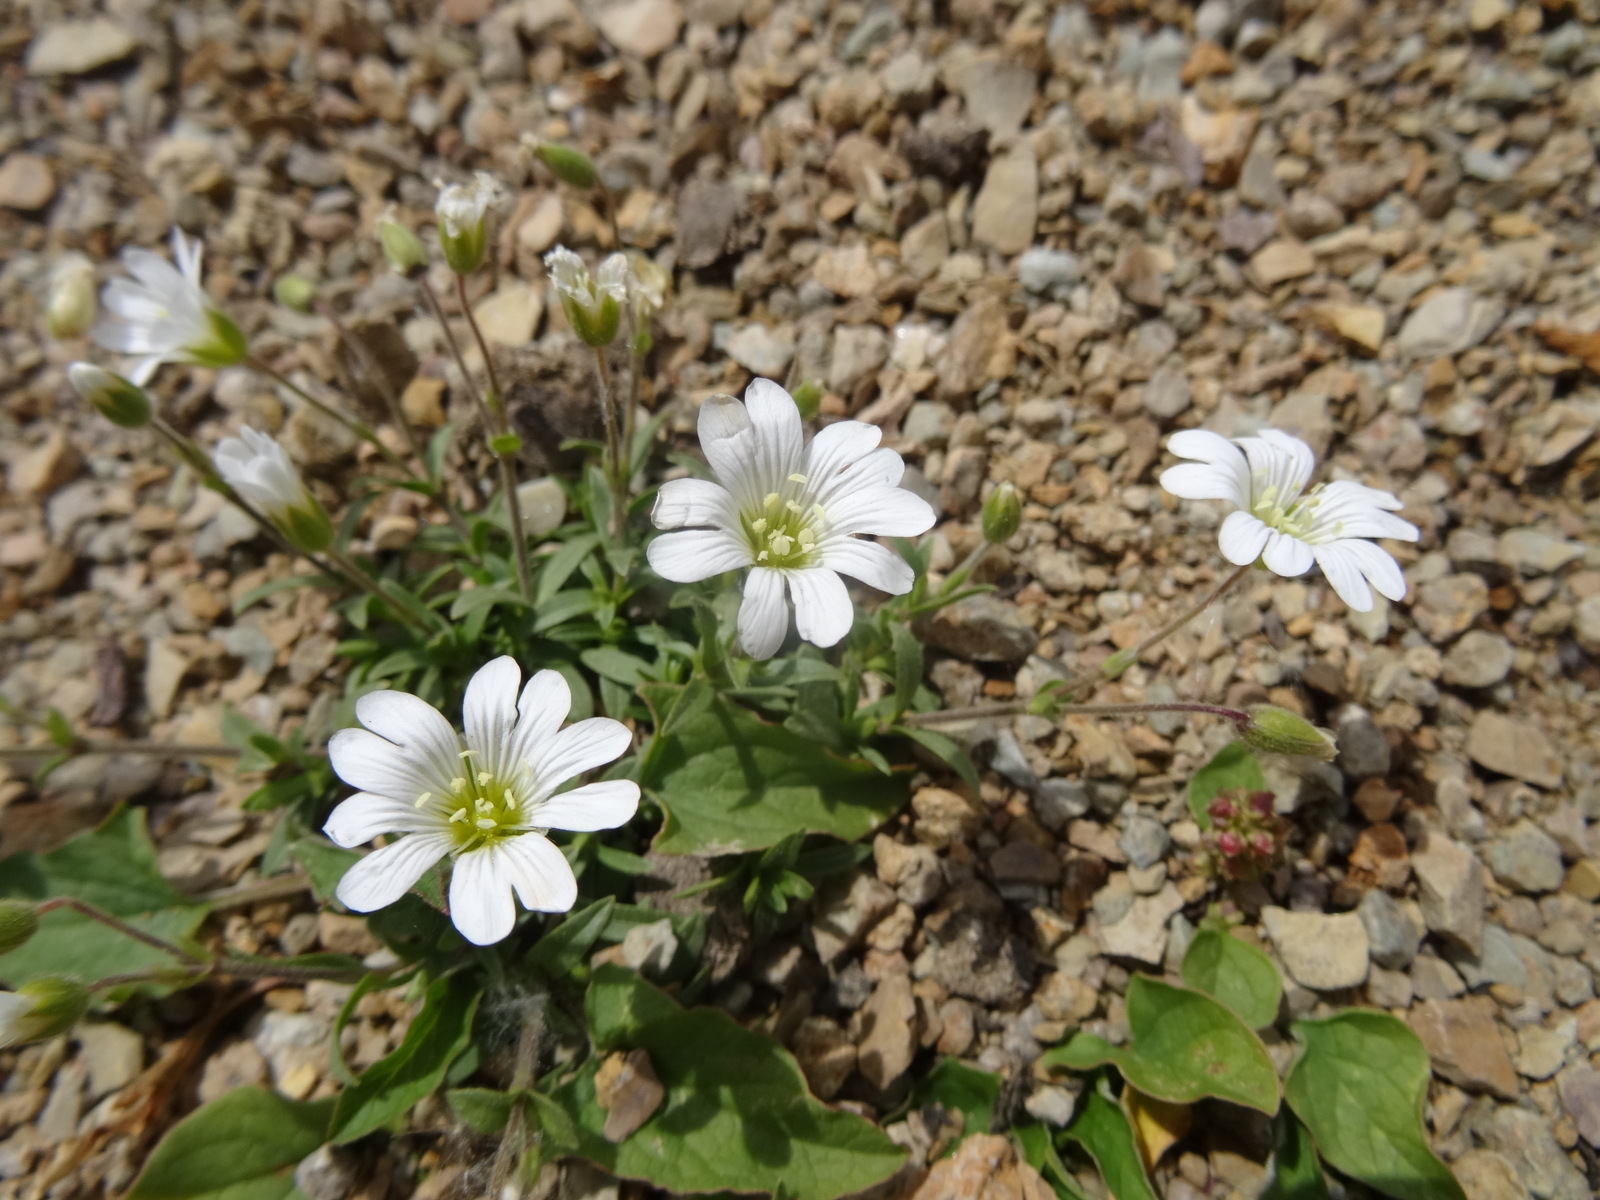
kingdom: Plantae
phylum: Tracheophyta
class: Magnoliopsida
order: Caryophyllales
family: Caryophyllaceae
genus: Cerastium
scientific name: Cerastium latifolium
